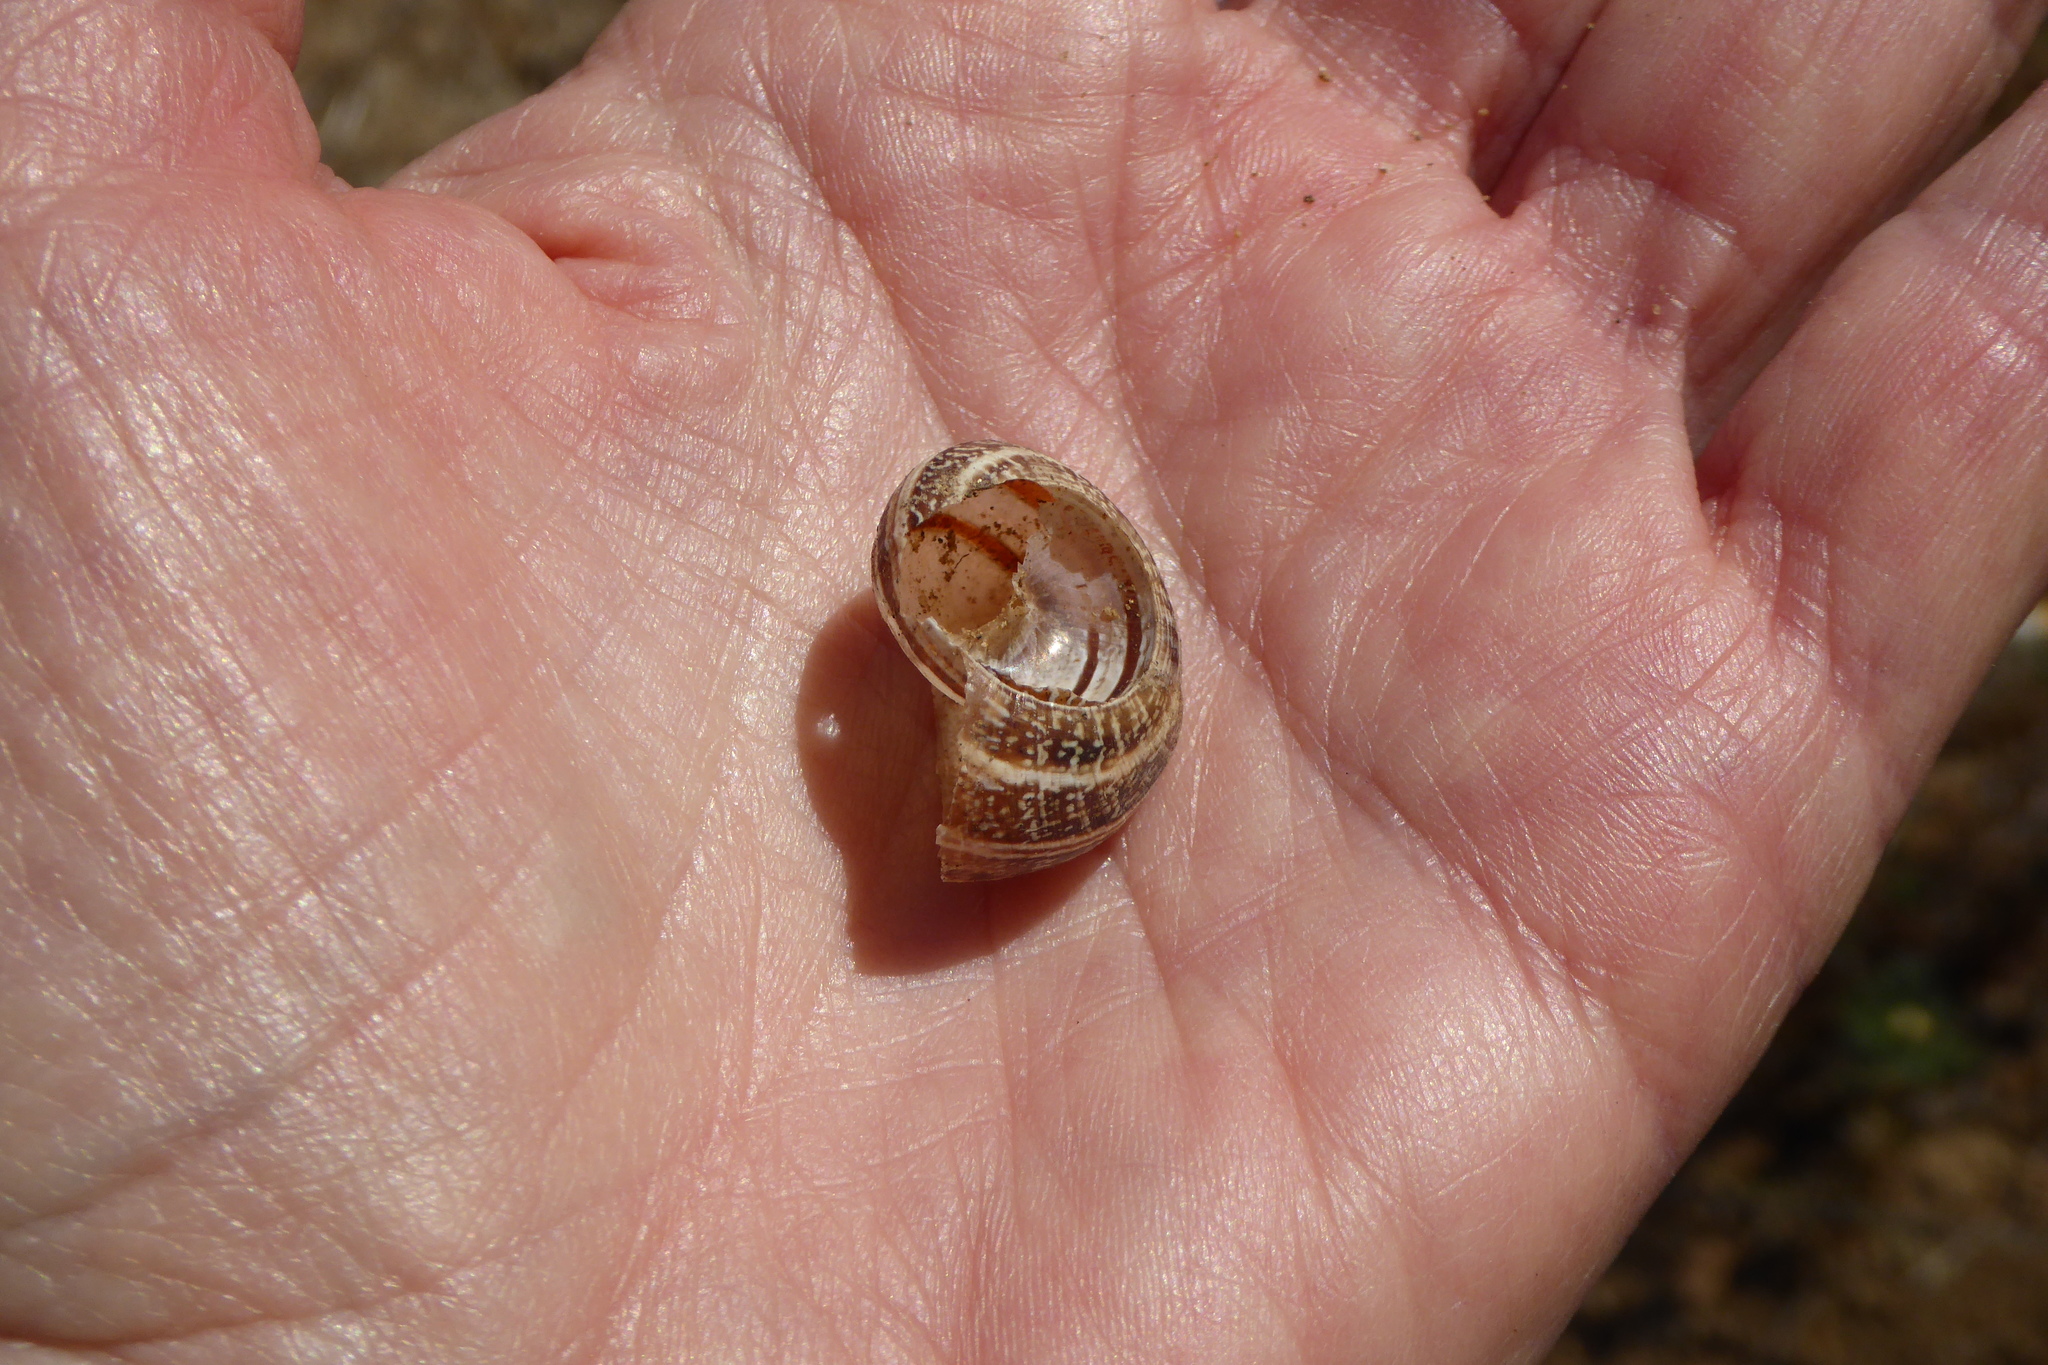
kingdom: Animalia
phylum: Mollusca
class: Gastropoda
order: Stylommatophora
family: Helicidae
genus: Otala
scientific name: Otala lactea
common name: Milk snail
